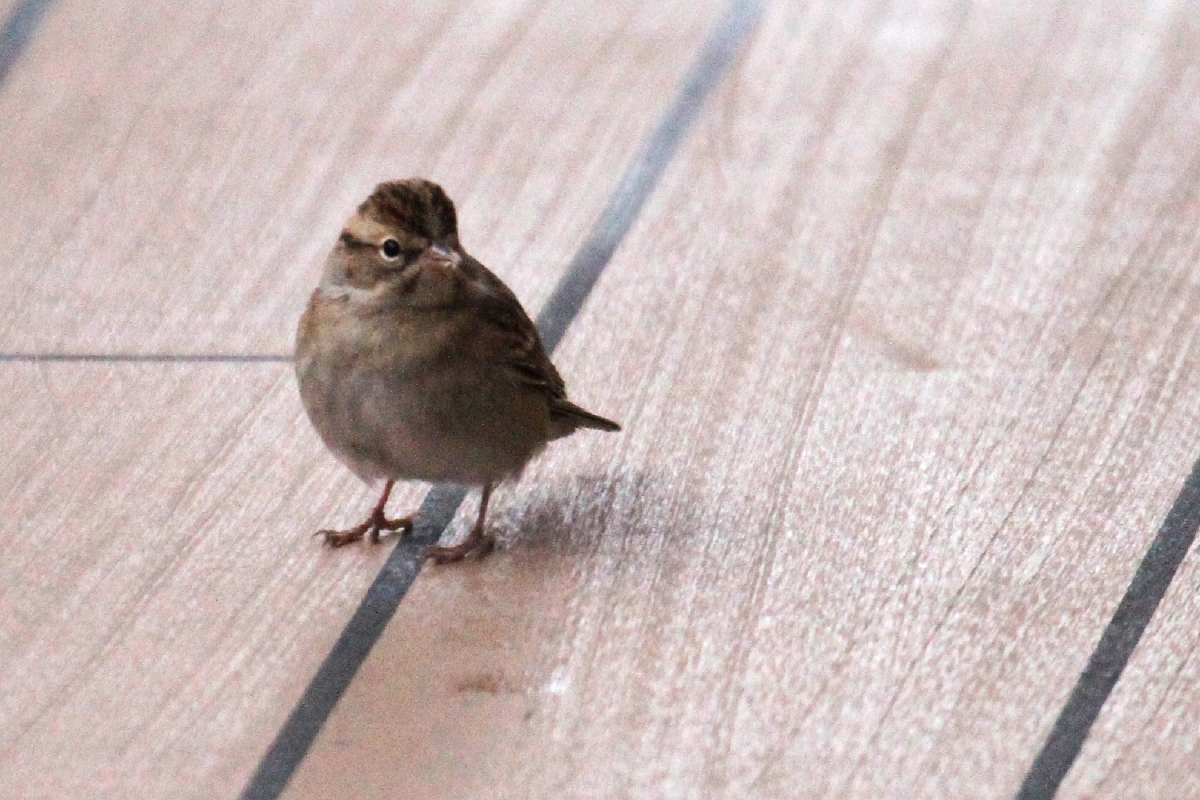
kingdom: Animalia
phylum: Chordata
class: Aves
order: Passeriformes
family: Passerellidae
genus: Spizella
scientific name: Spizella passerina
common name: Chipping sparrow
